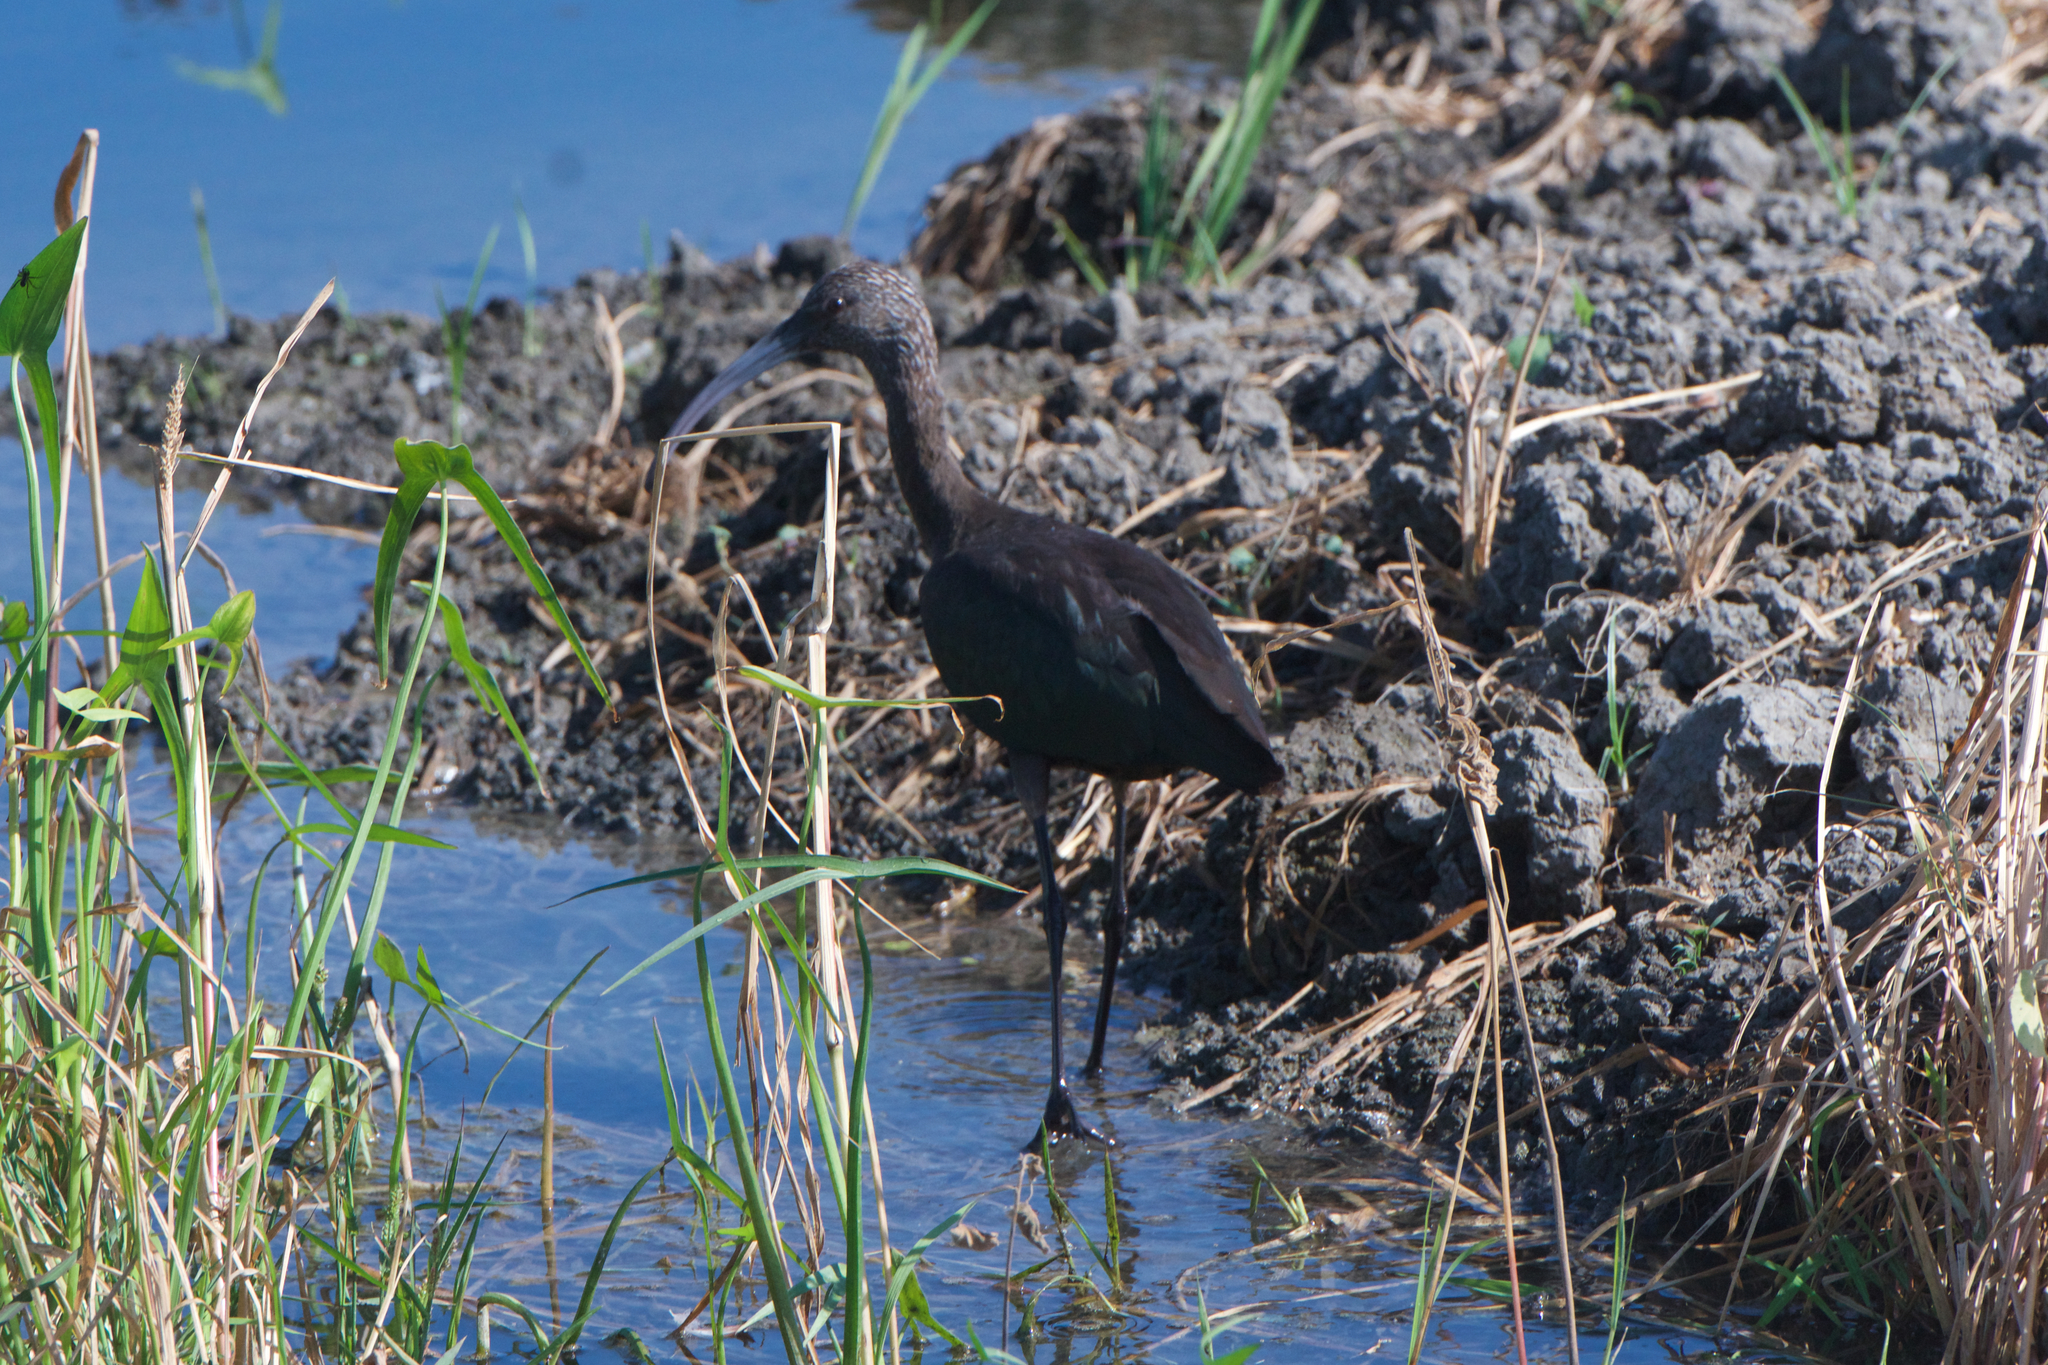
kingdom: Animalia
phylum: Chordata
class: Aves
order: Pelecaniformes
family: Threskiornithidae
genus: Plegadis
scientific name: Plegadis chihi
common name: White-faced ibis
